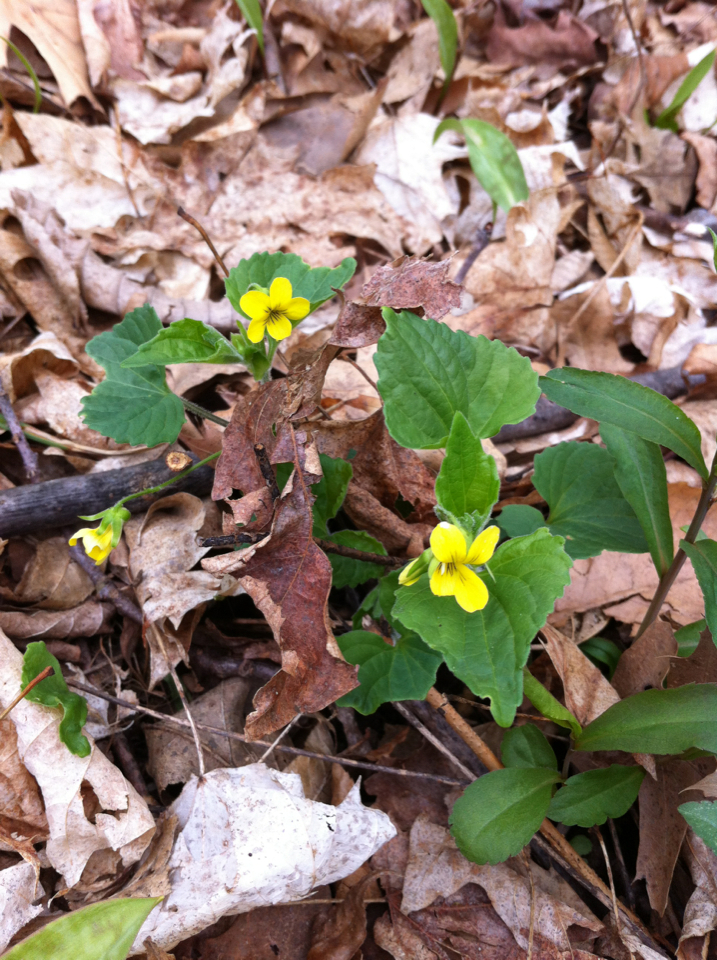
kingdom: Plantae
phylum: Tracheophyta
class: Magnoliopsida
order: Malpighiales
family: Violaceae
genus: Viola
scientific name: Viola eriocarpa
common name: Smooth yellow violet
